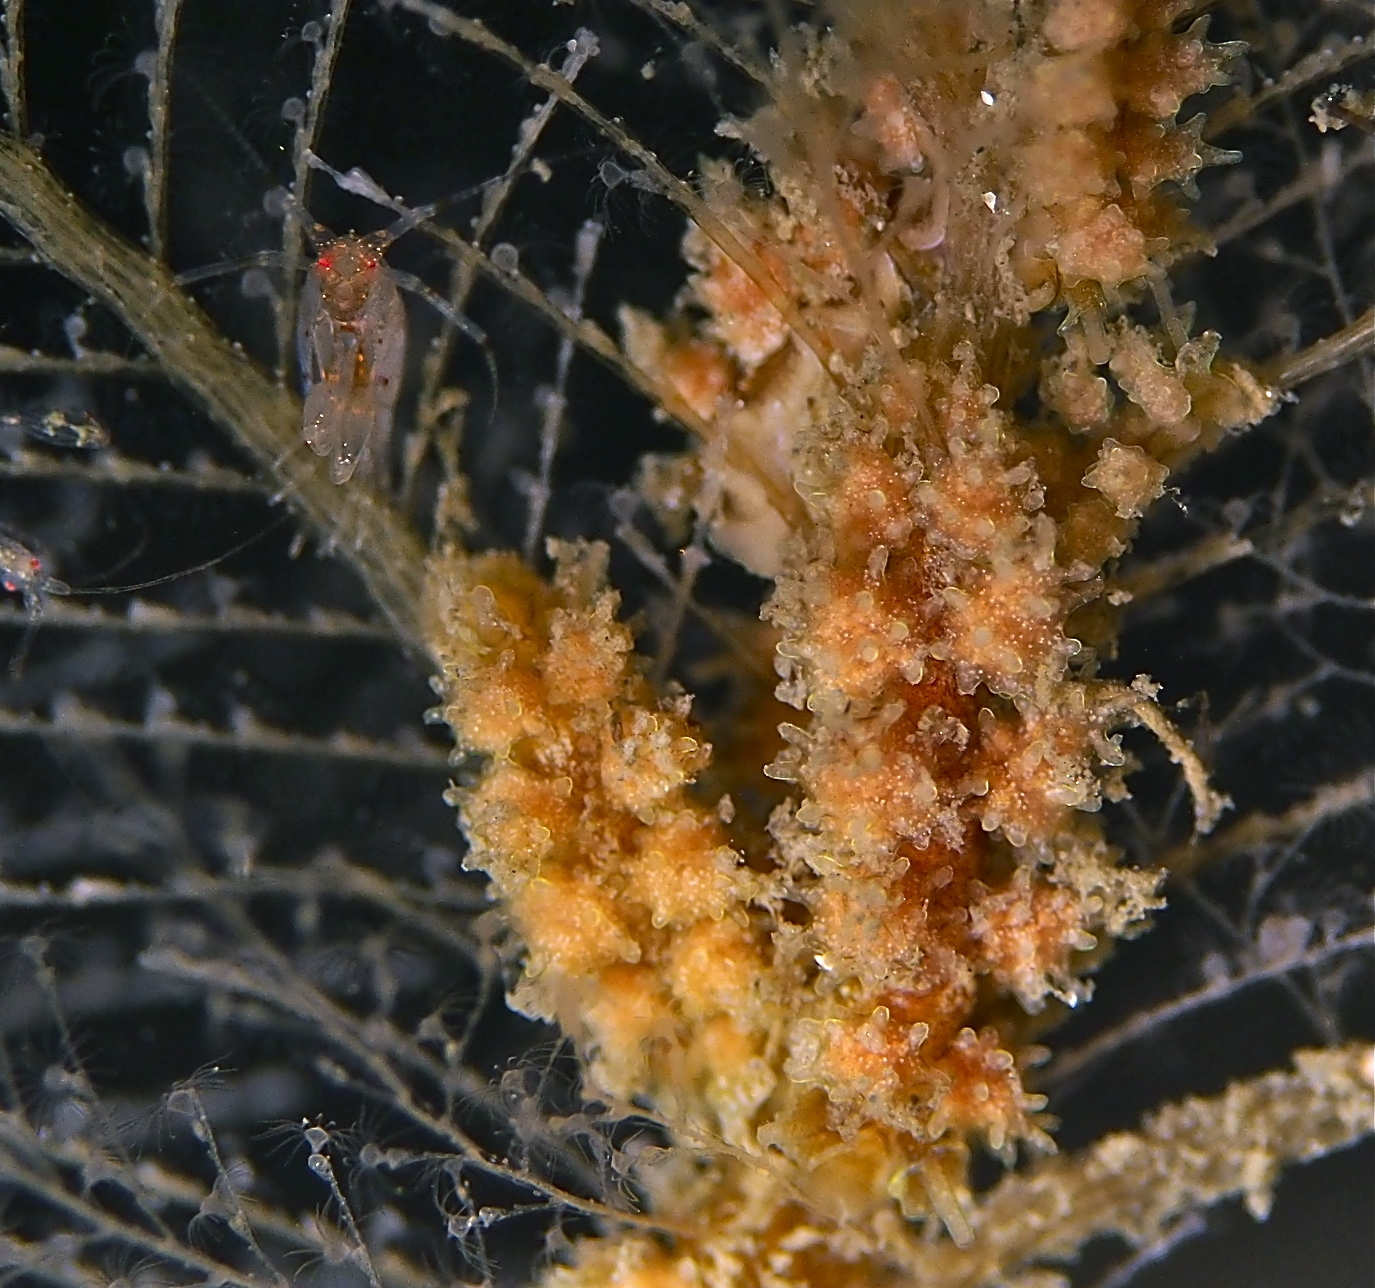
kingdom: Animalia
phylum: Mollusca
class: Gastropoda
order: Nudibranchia
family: Dotidae
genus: Doto
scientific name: Doto hystrix
